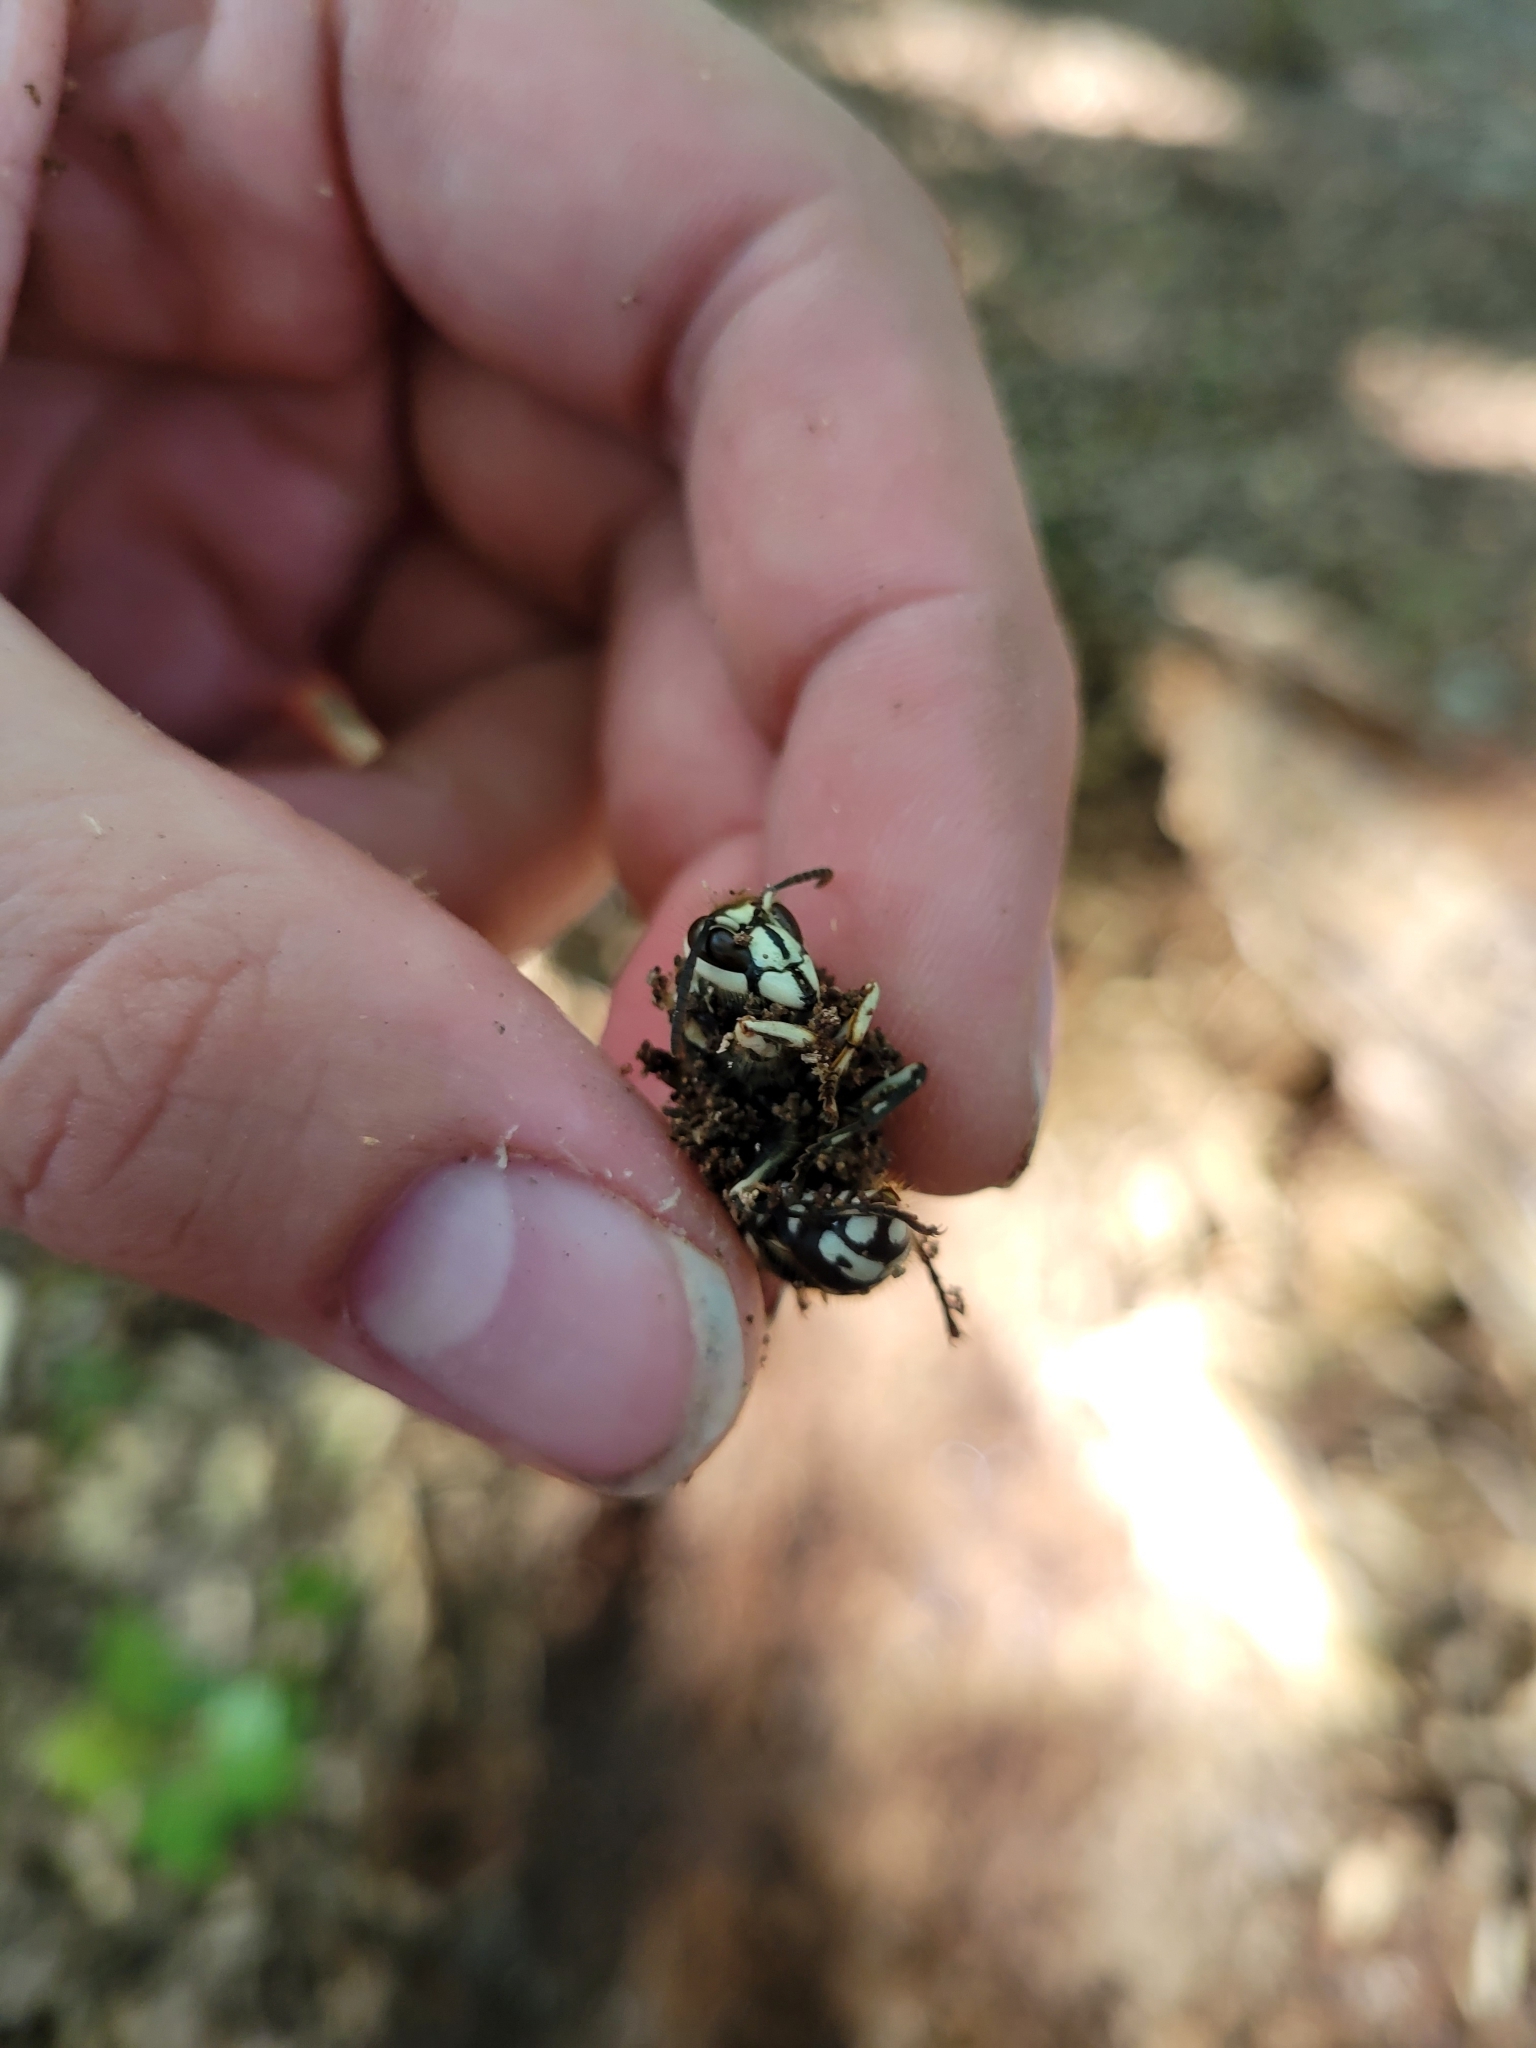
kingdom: Animalia
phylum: Arthropoda
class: Insecta
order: Hymenoptera
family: Vespidae
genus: Dolichovespula
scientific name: Dolichovespula maculata
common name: Bald-faced hornet
